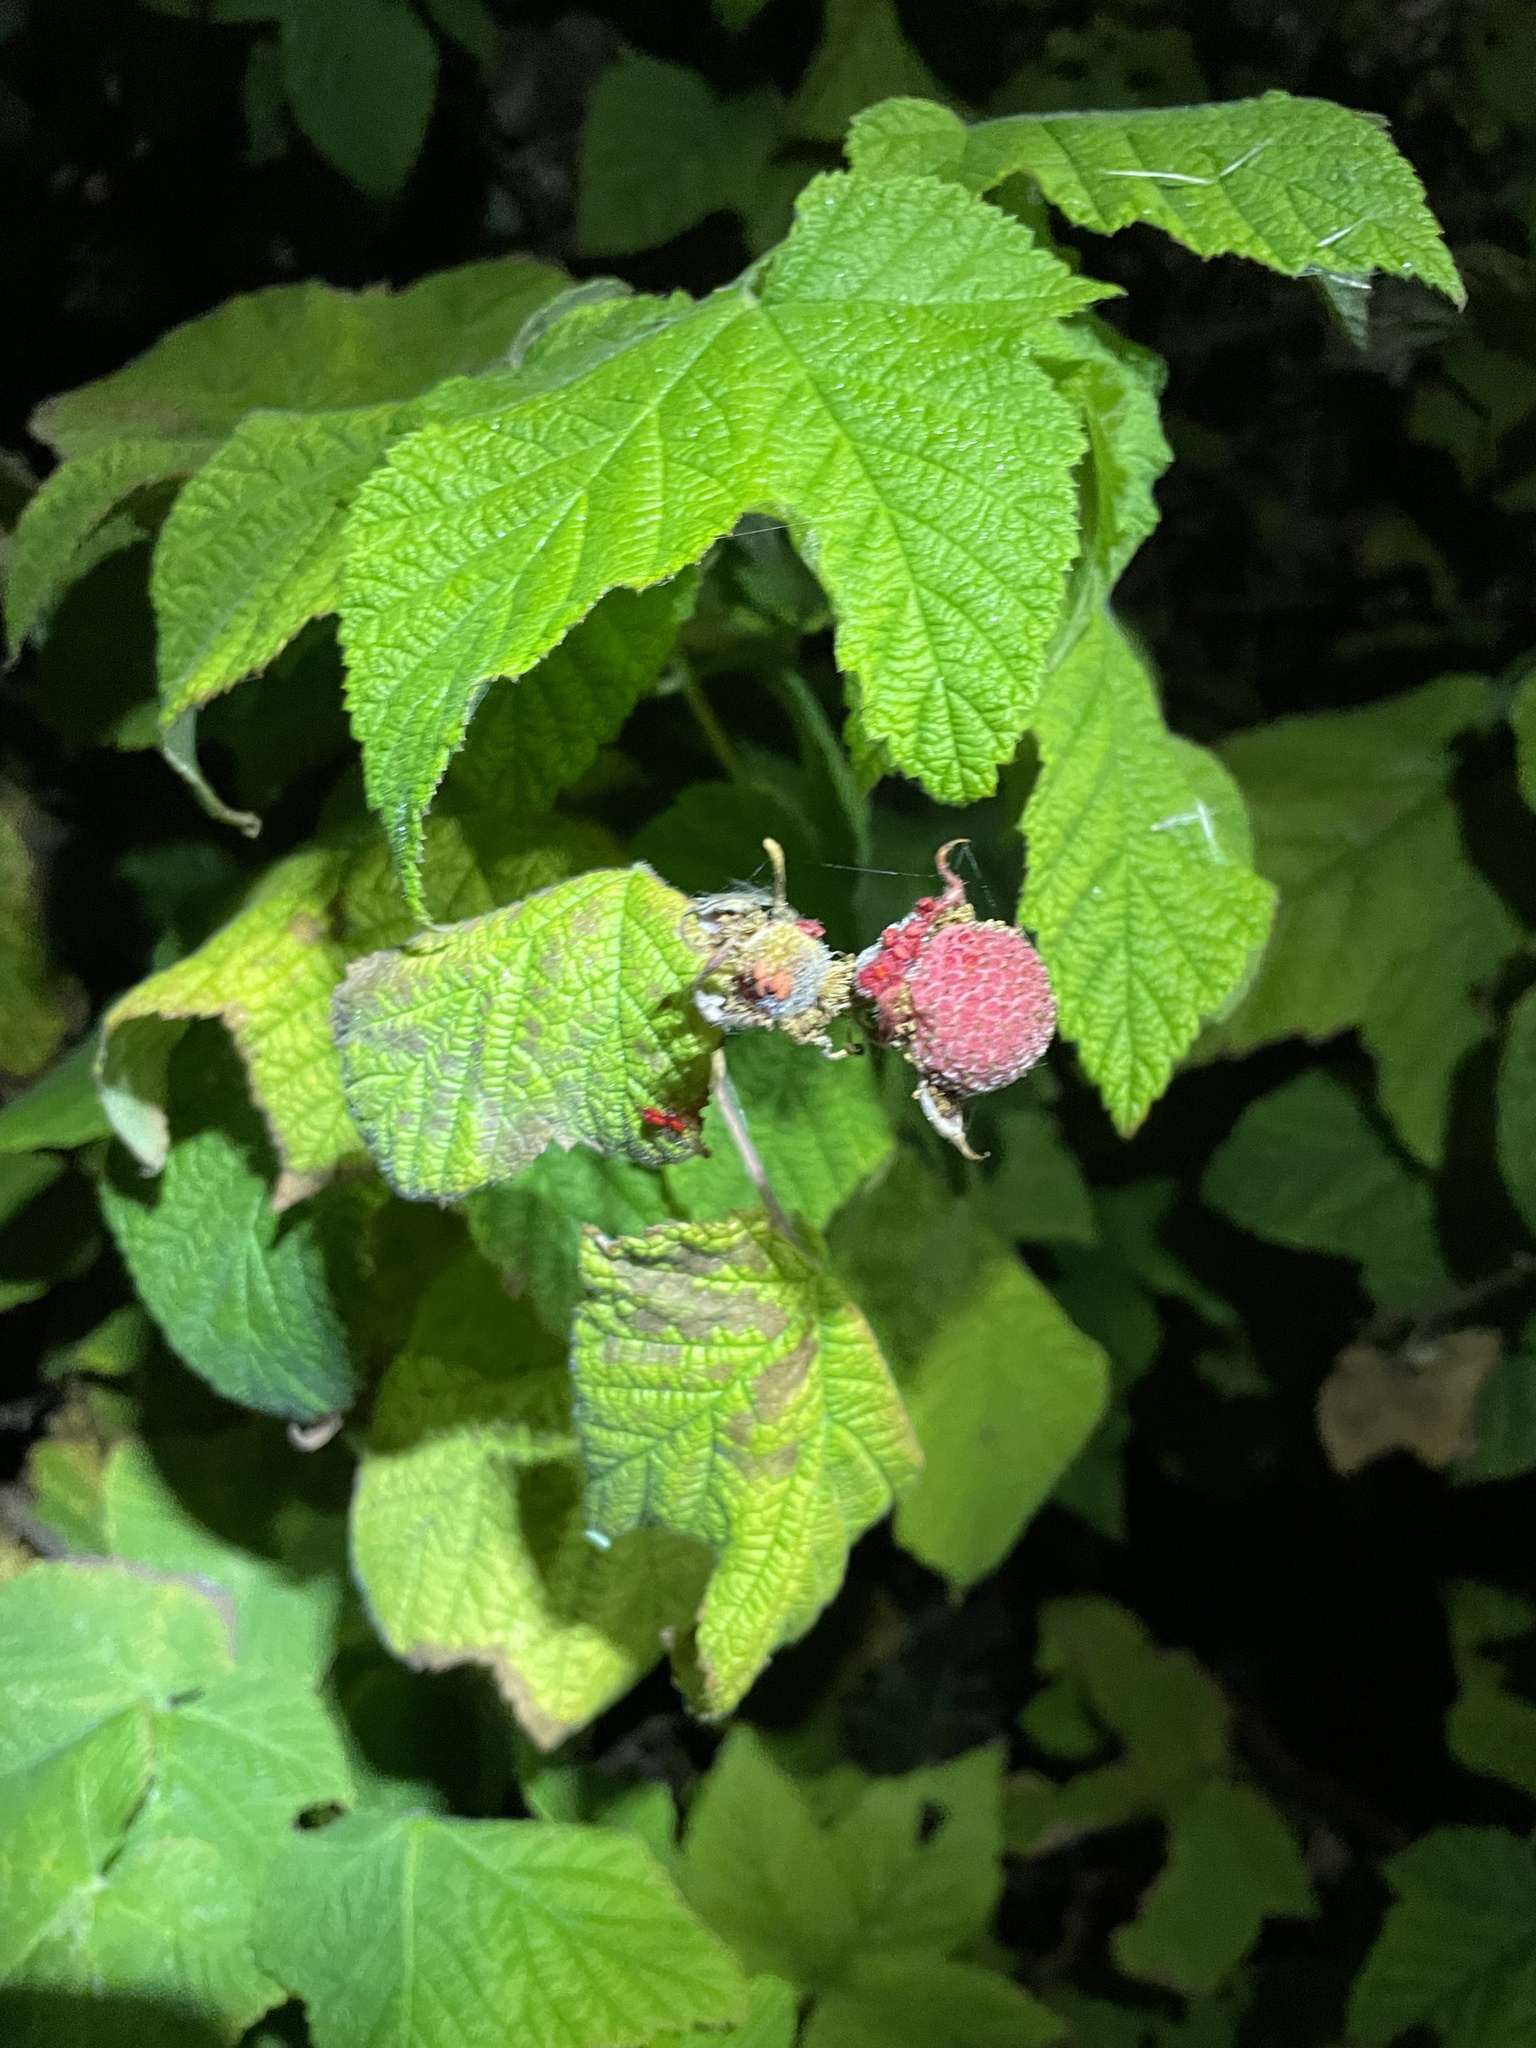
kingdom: Plantae
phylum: Tracheophyta
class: Magnoliopsida
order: Rosales
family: Rosaceae
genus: Rubus
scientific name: Rubus parviflorus
